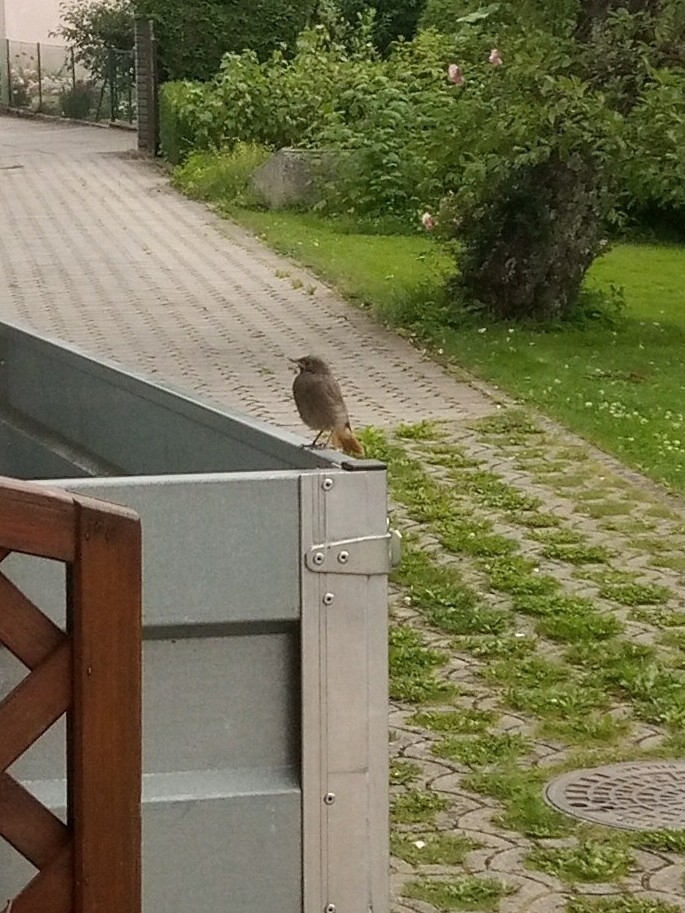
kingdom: Animalia
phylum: Chordata
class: Aves
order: Passeriformes
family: Muscicapidae
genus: Phoenicurus
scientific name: Phoenicurus ochruros
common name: Black redstart
